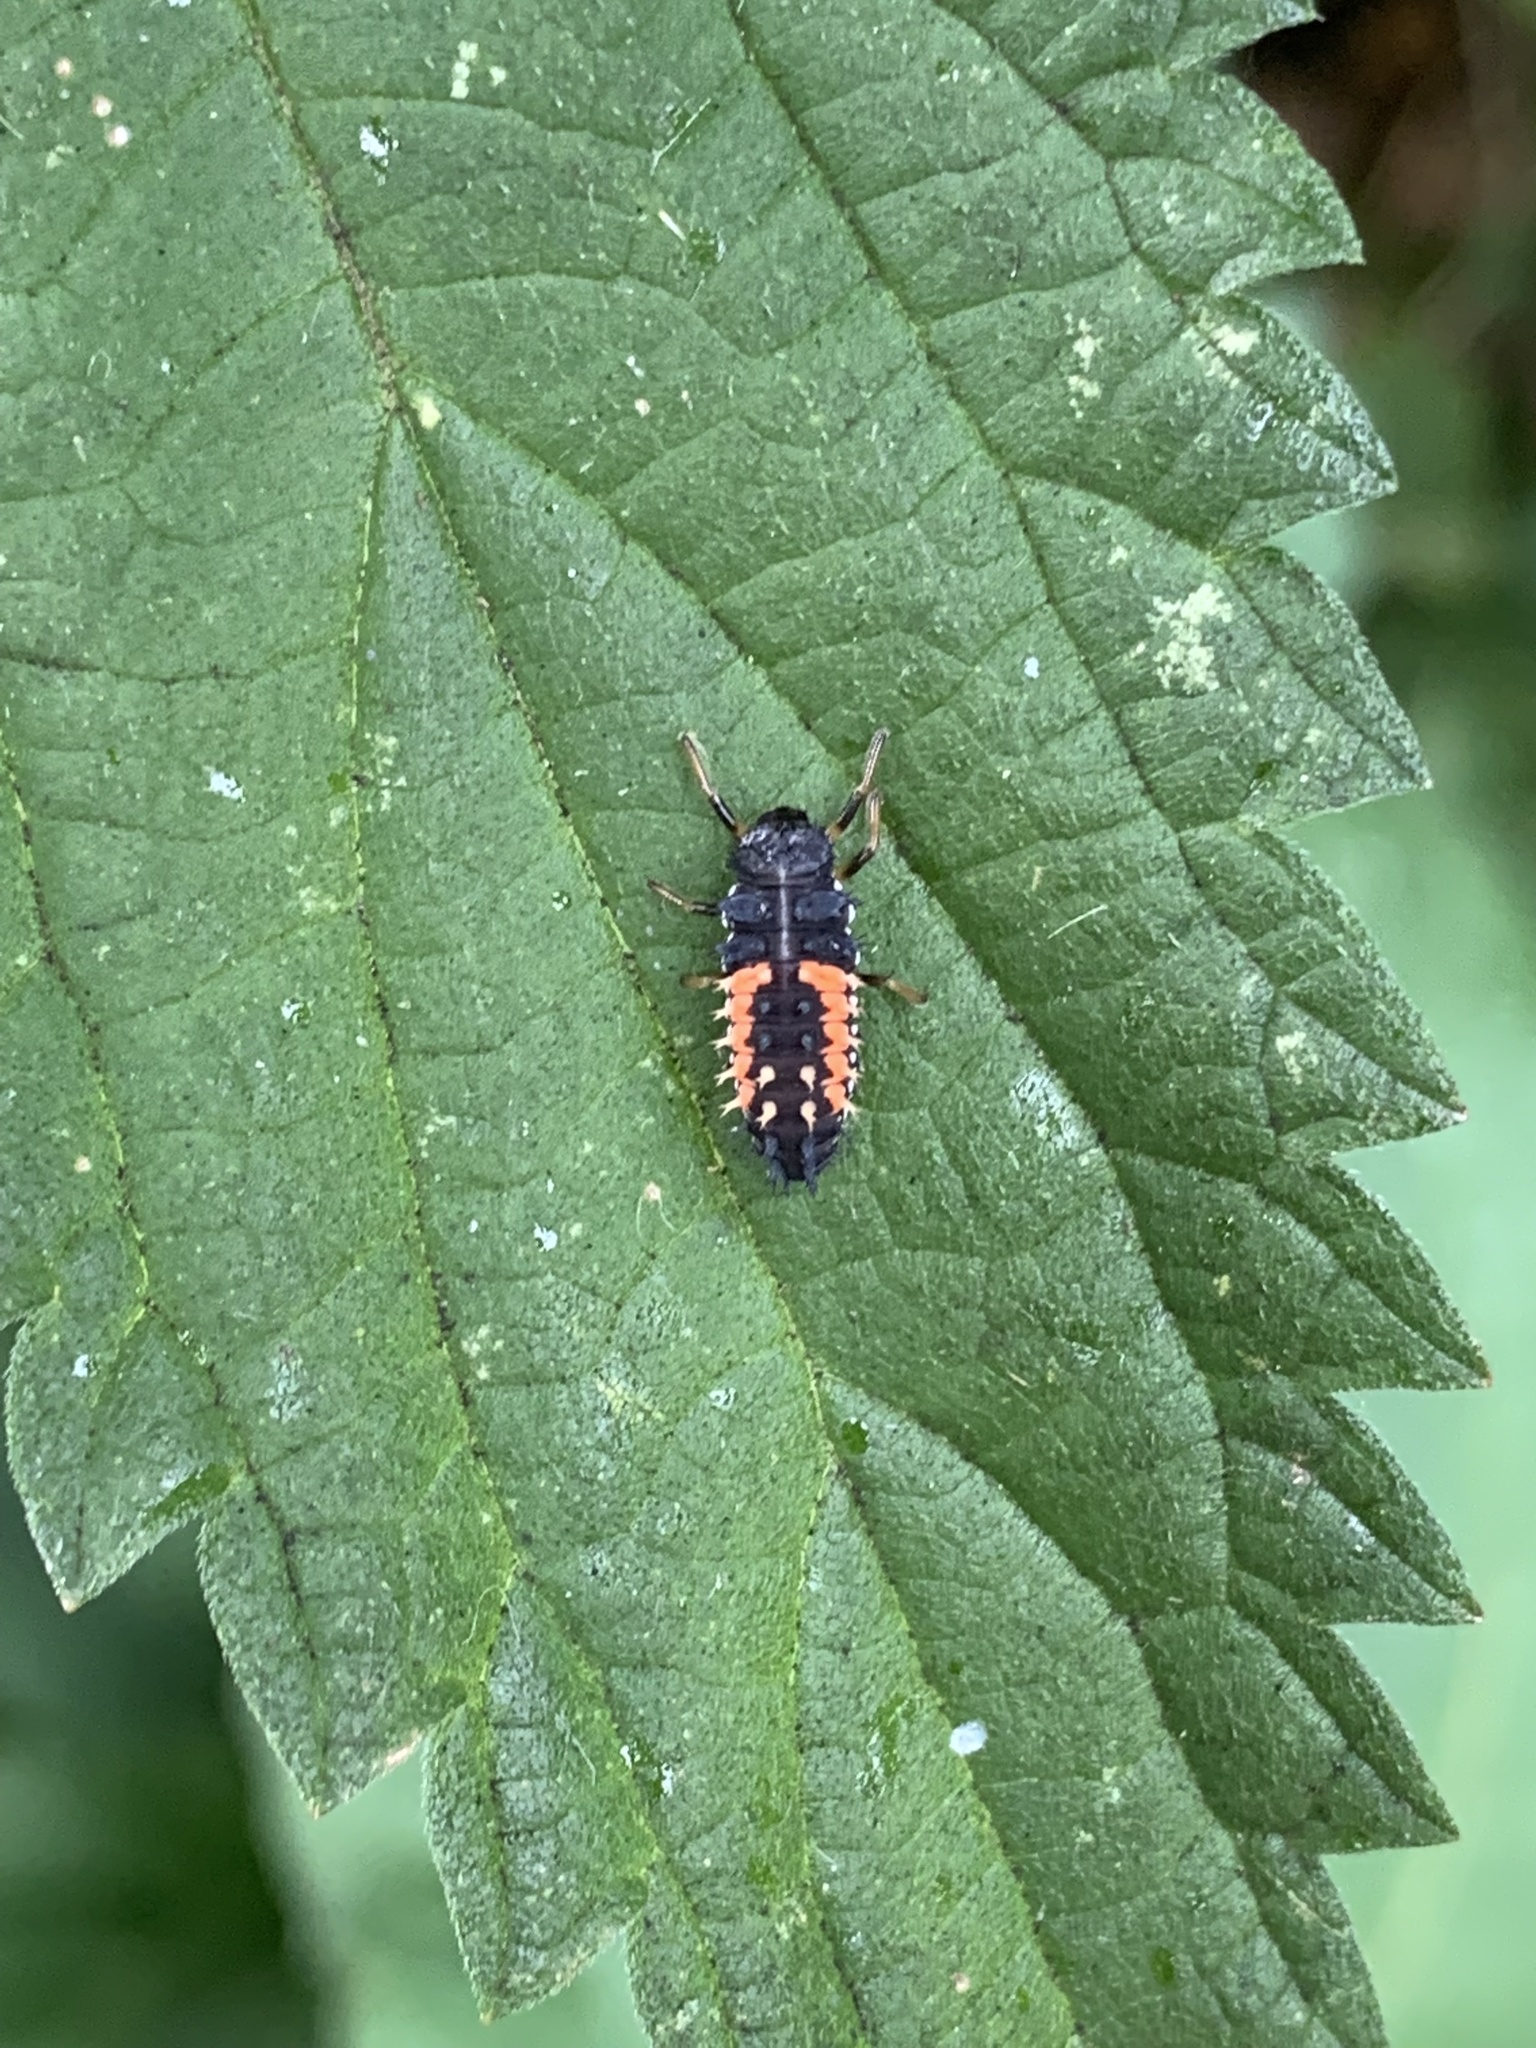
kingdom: Animalia
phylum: Arthropoda
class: Insecta
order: Coleoptera
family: Coccinellidae
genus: Harmonia
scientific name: Harmonia axyridis
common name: Harlequin ladybird
